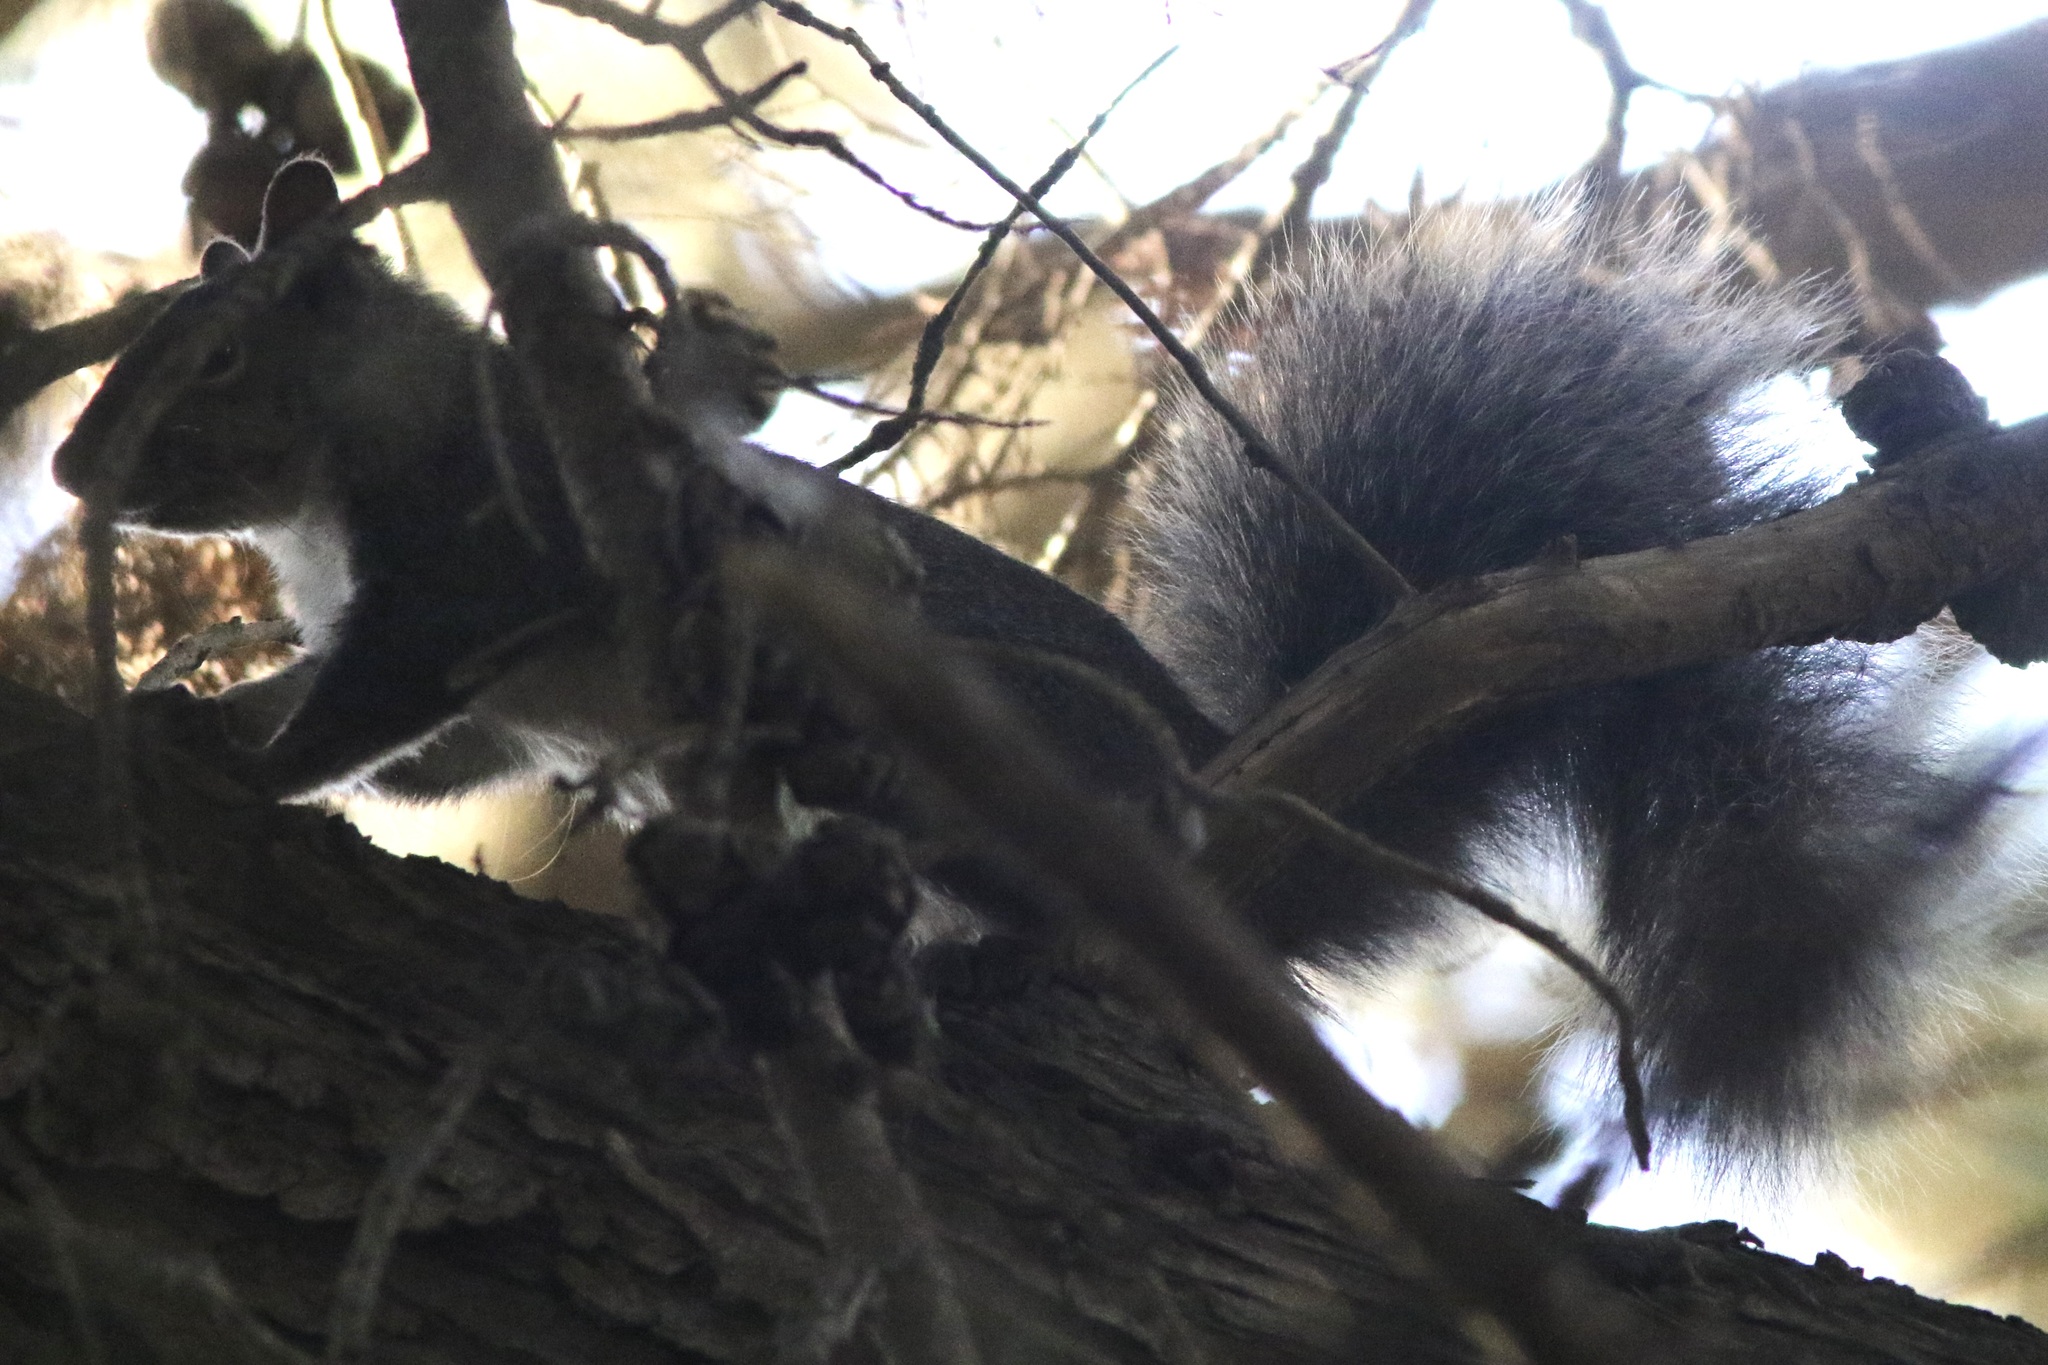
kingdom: Animalia
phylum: Chordata
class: Mammalia
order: Rodentia
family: Sciuridae
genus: Sciurus
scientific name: Sciurus griseus
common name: Western gray squirrel
